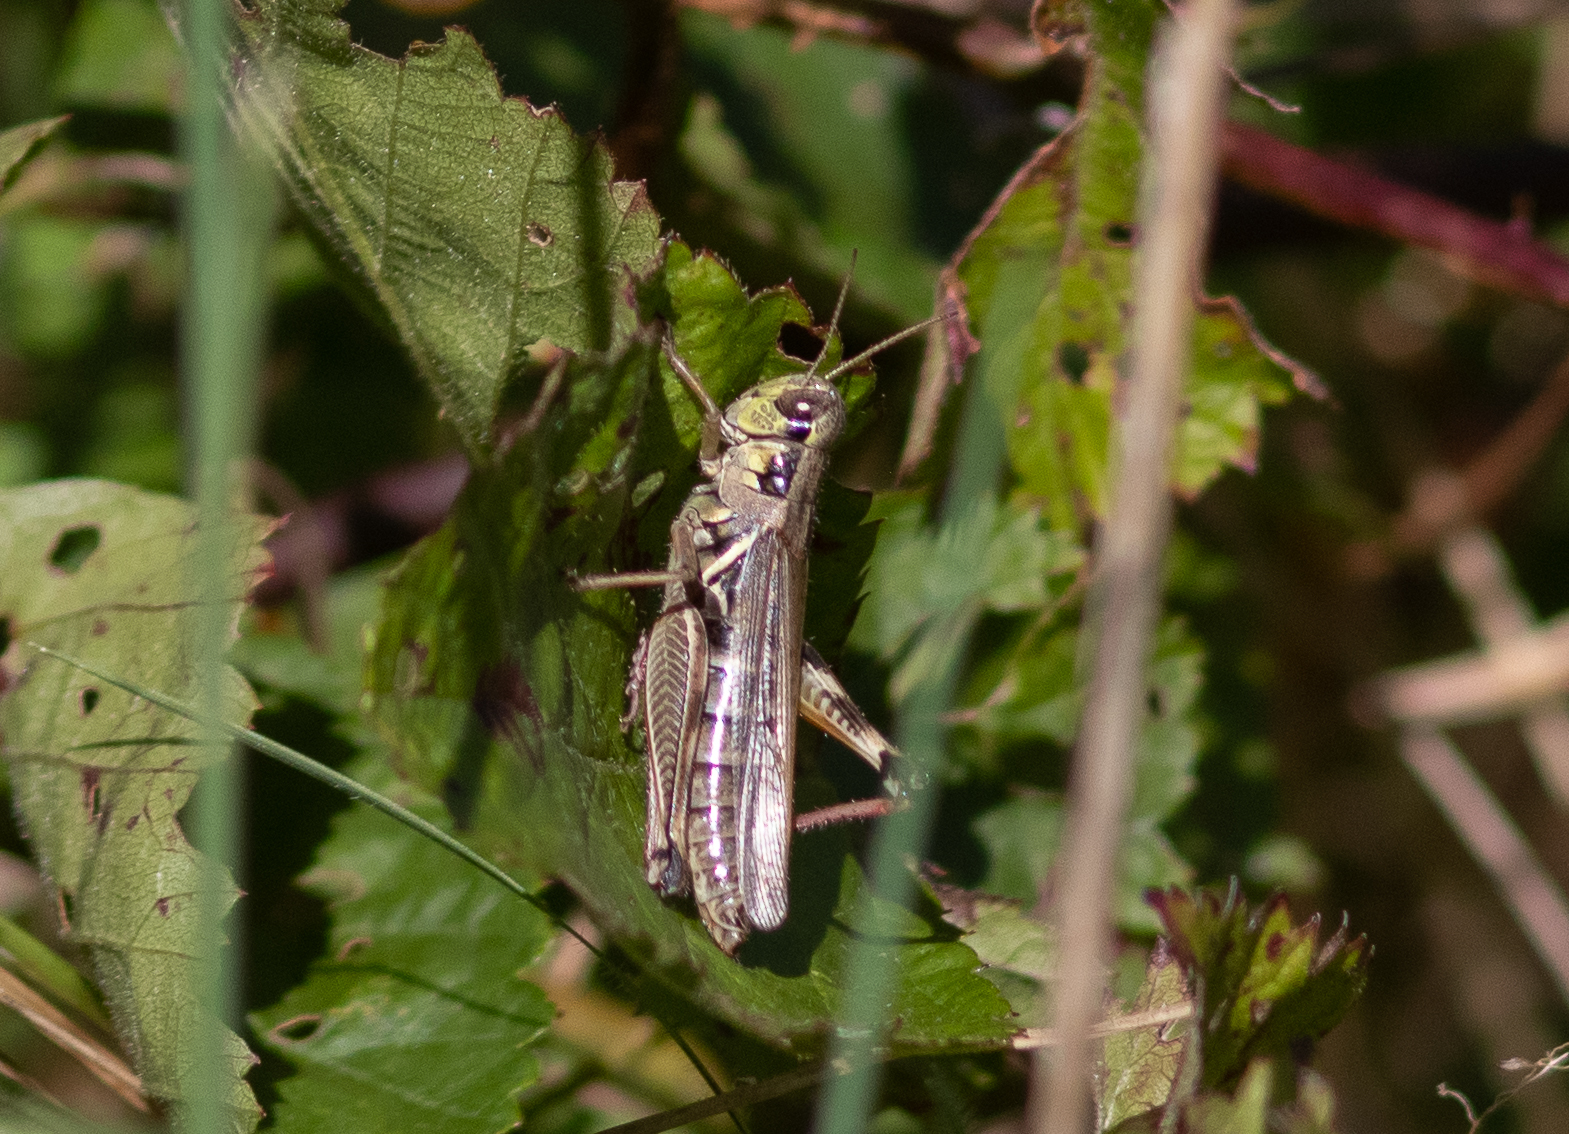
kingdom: Animalia
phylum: Arthropoda
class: Insecta
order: Orthoptera
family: Acrididae
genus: Melanoplus
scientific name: Melanoplus
